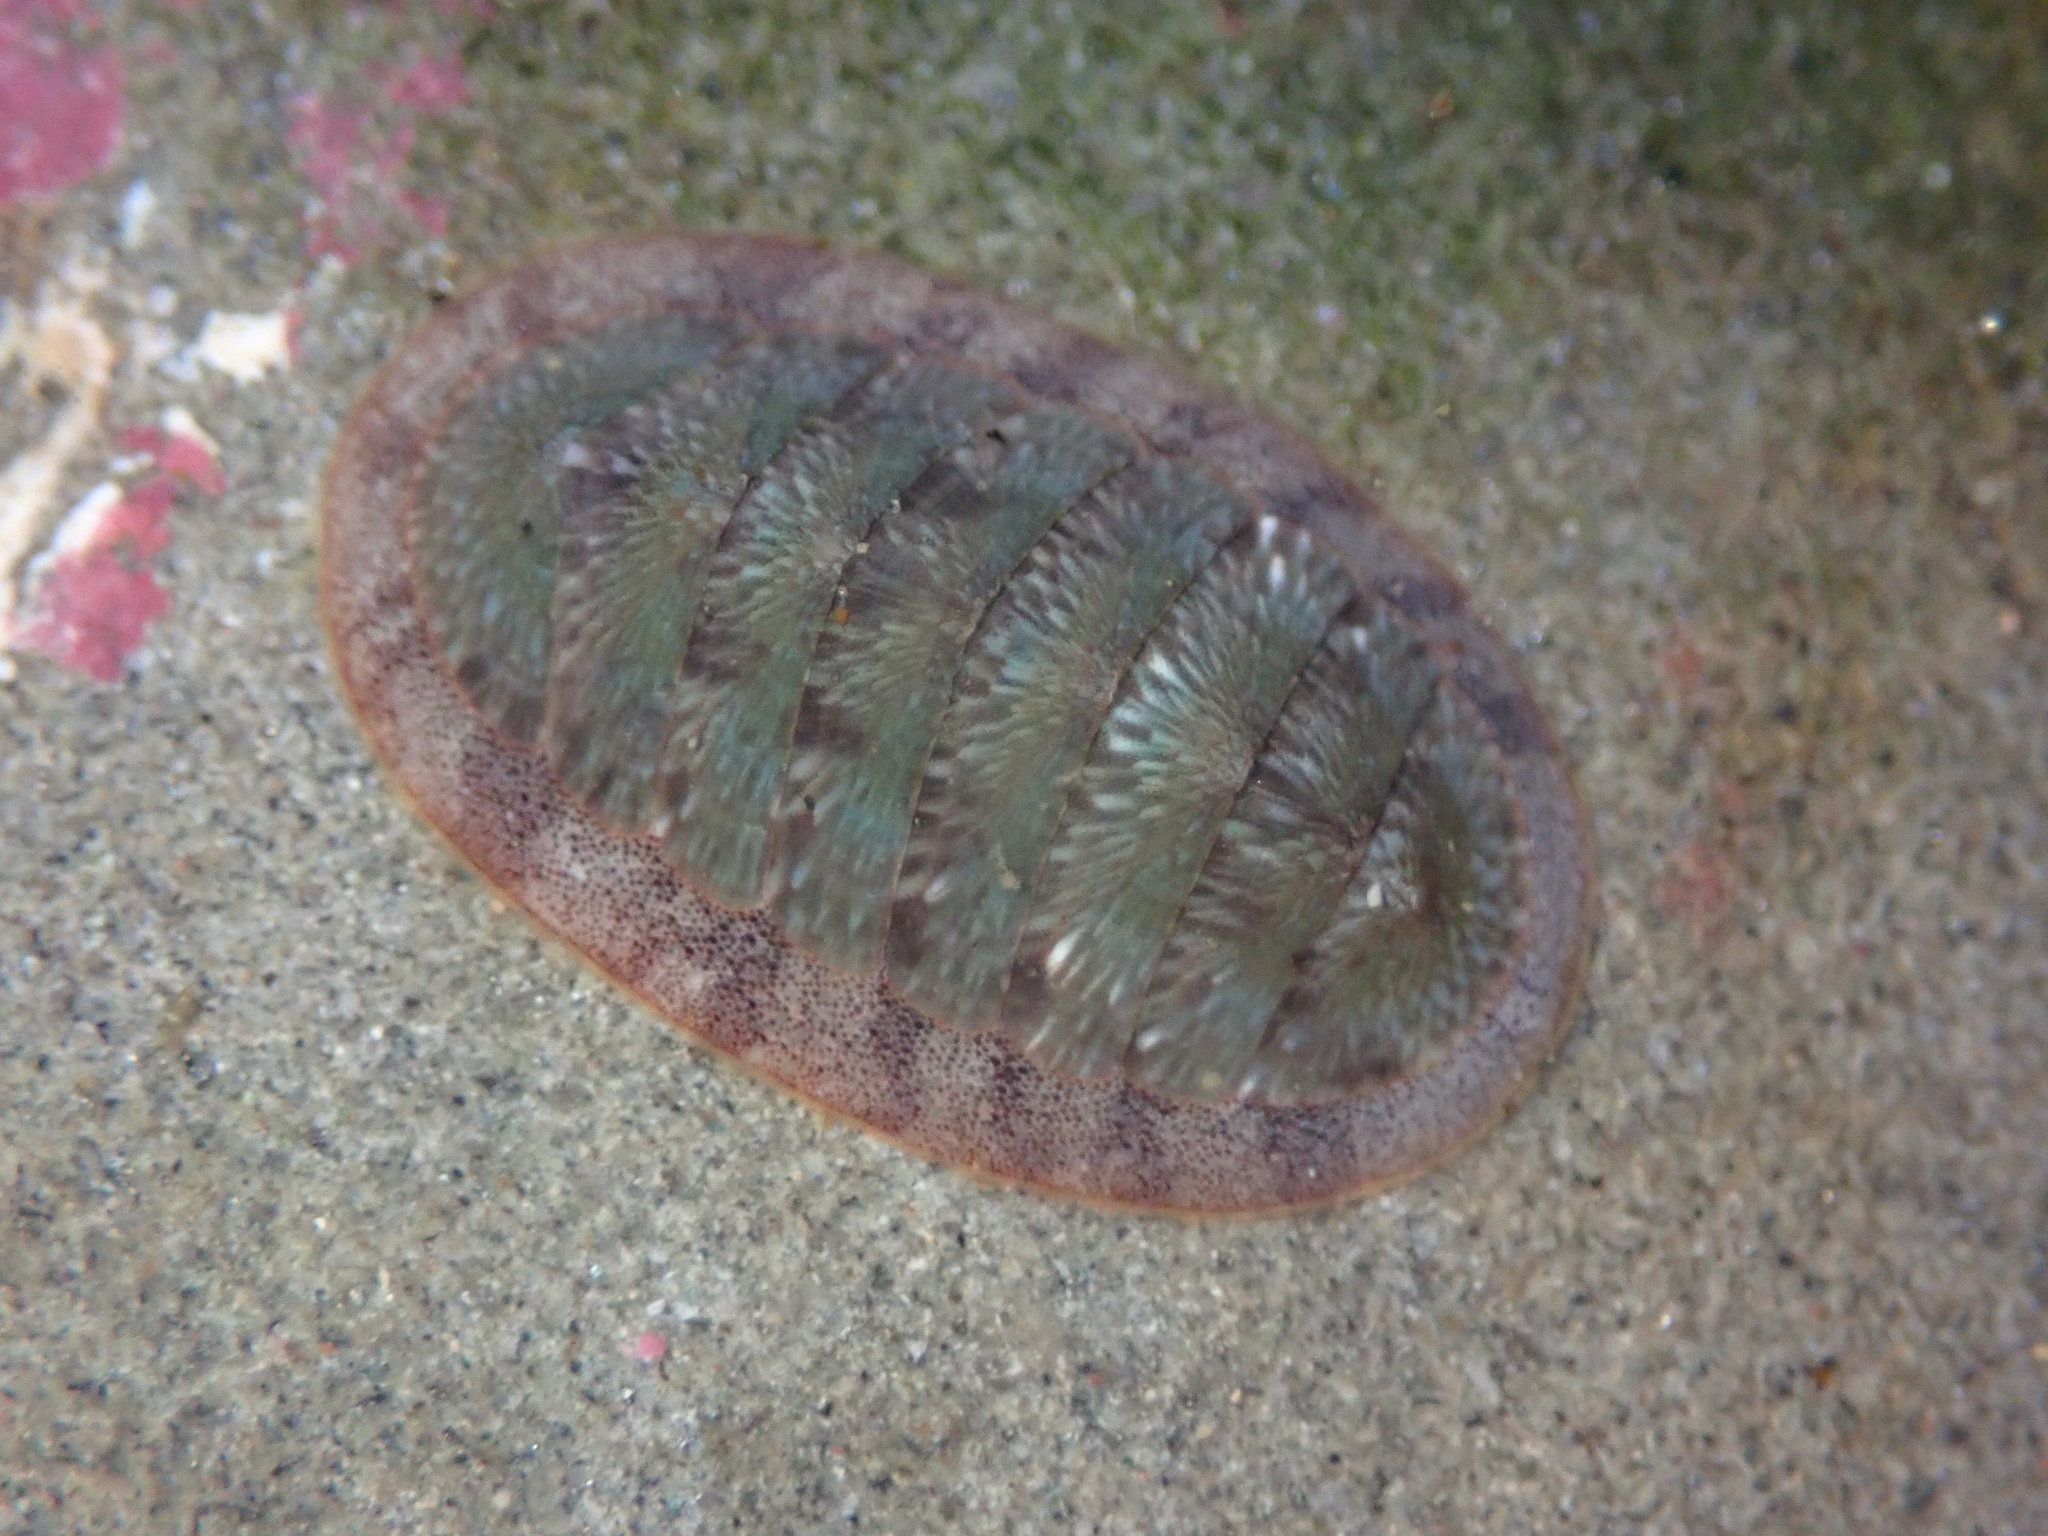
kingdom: Animalia
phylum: Mollusca
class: Polyplacophora
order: Chitonida
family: Ischnochitonidae
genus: Lepidozona
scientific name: Lepidozona radians
